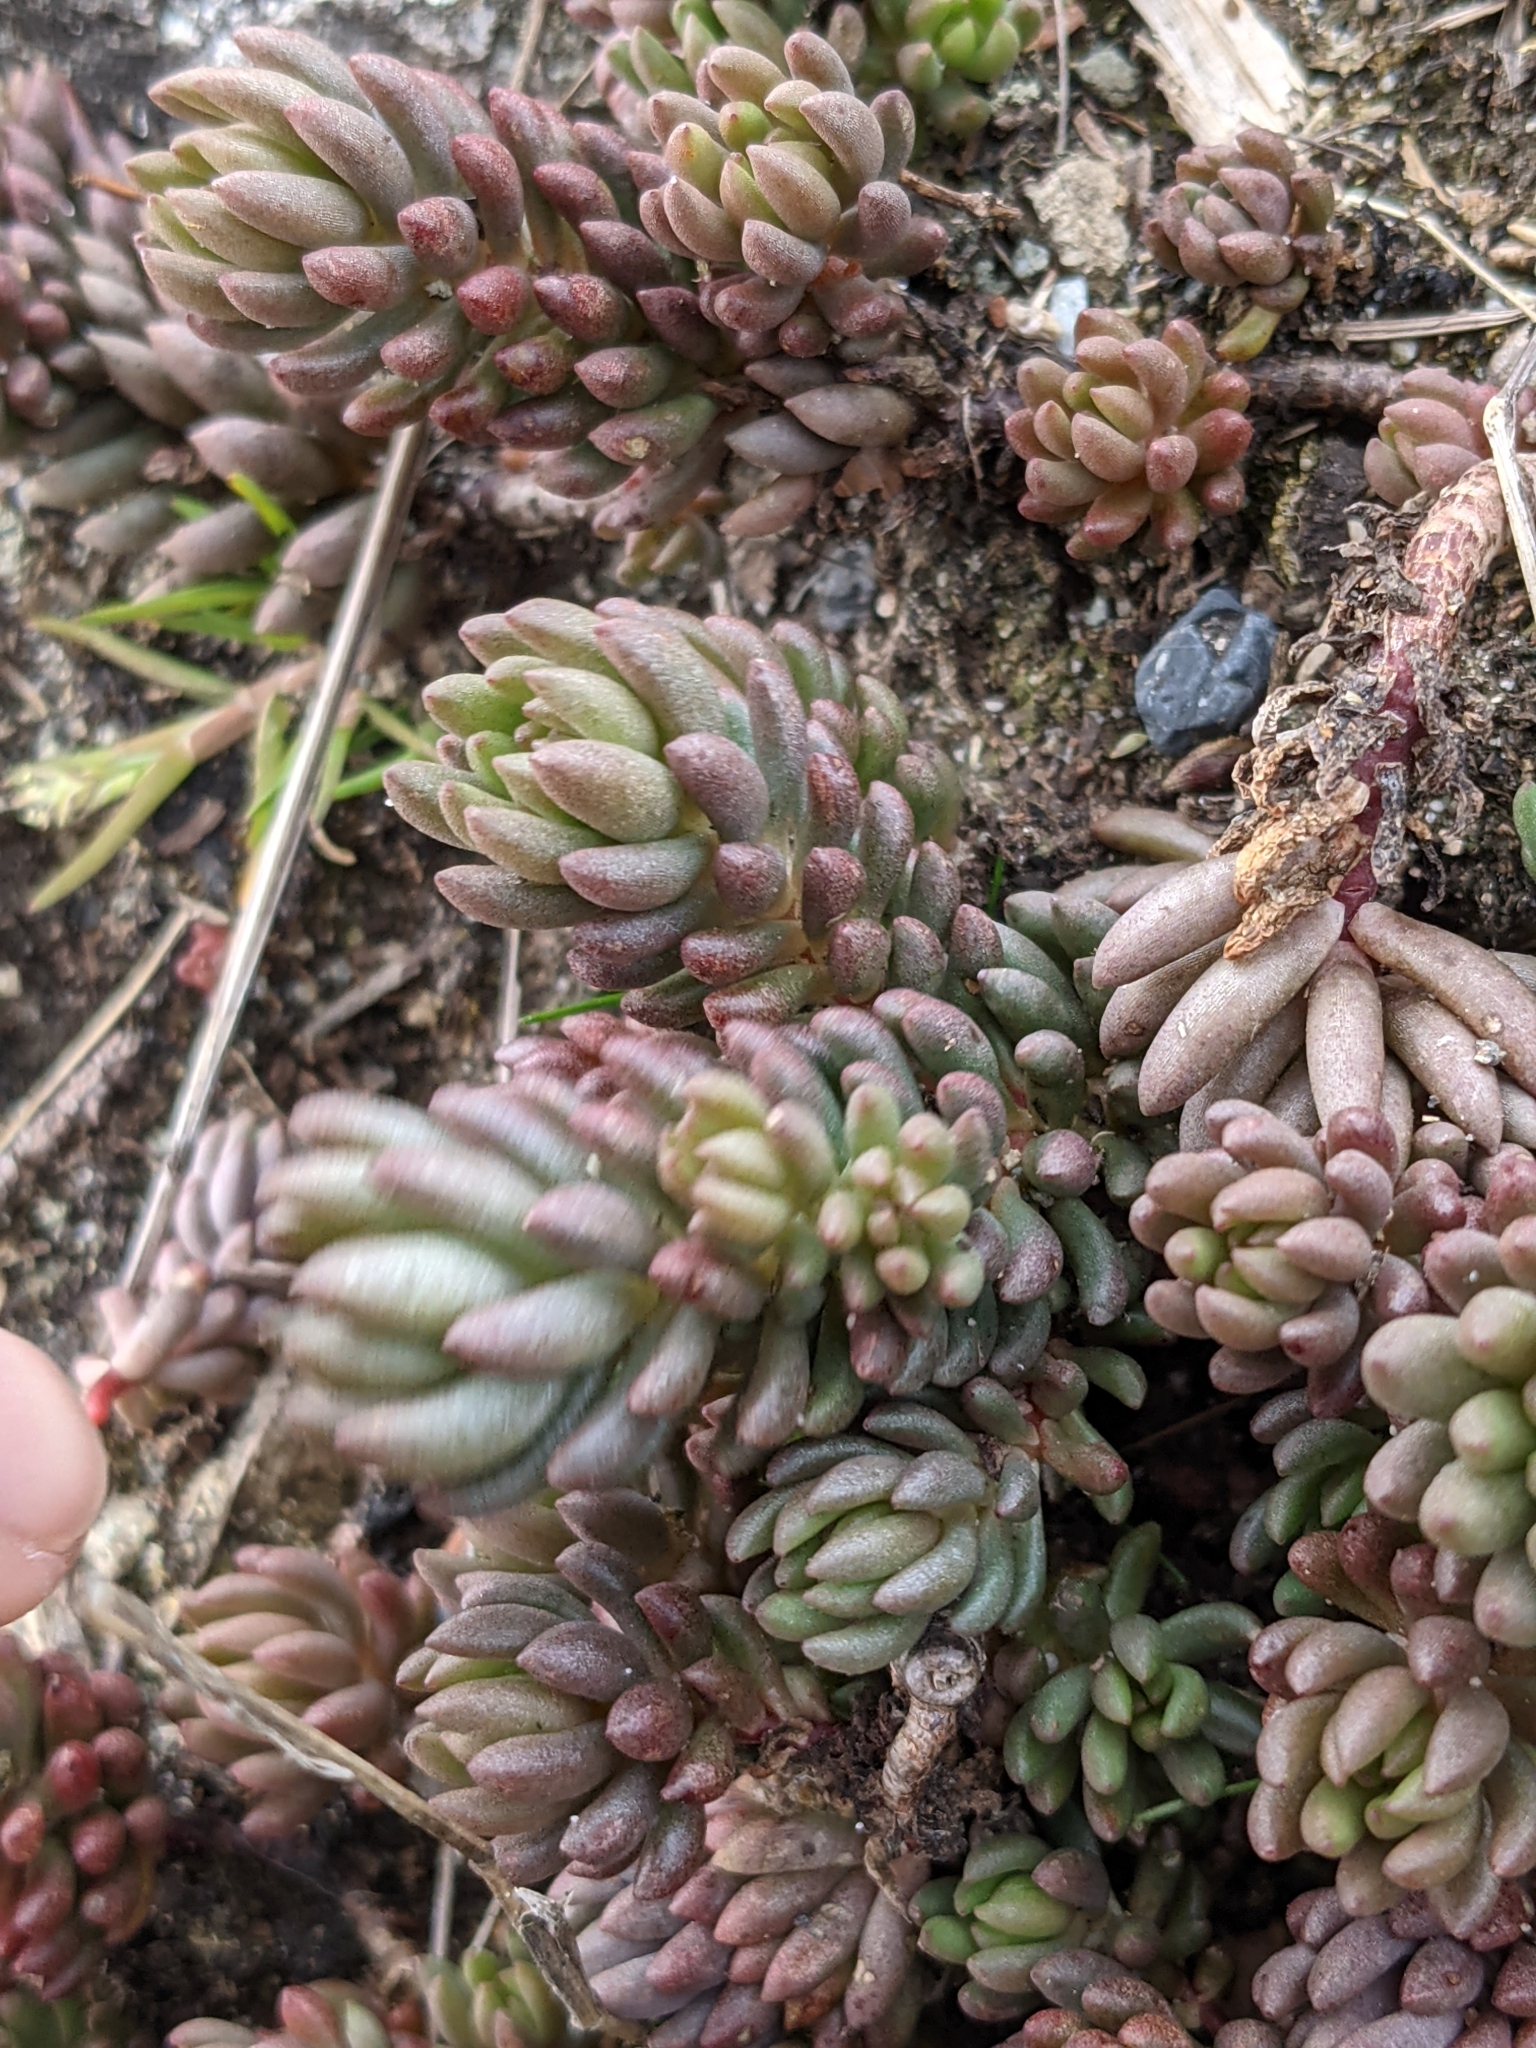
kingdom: Plantae
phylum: Tracheophyta
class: Magnoliopsida
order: Saxifragales
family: Crassulaceae
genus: Sedum
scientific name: Sedum lanceolatum
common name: Common stonecrop
